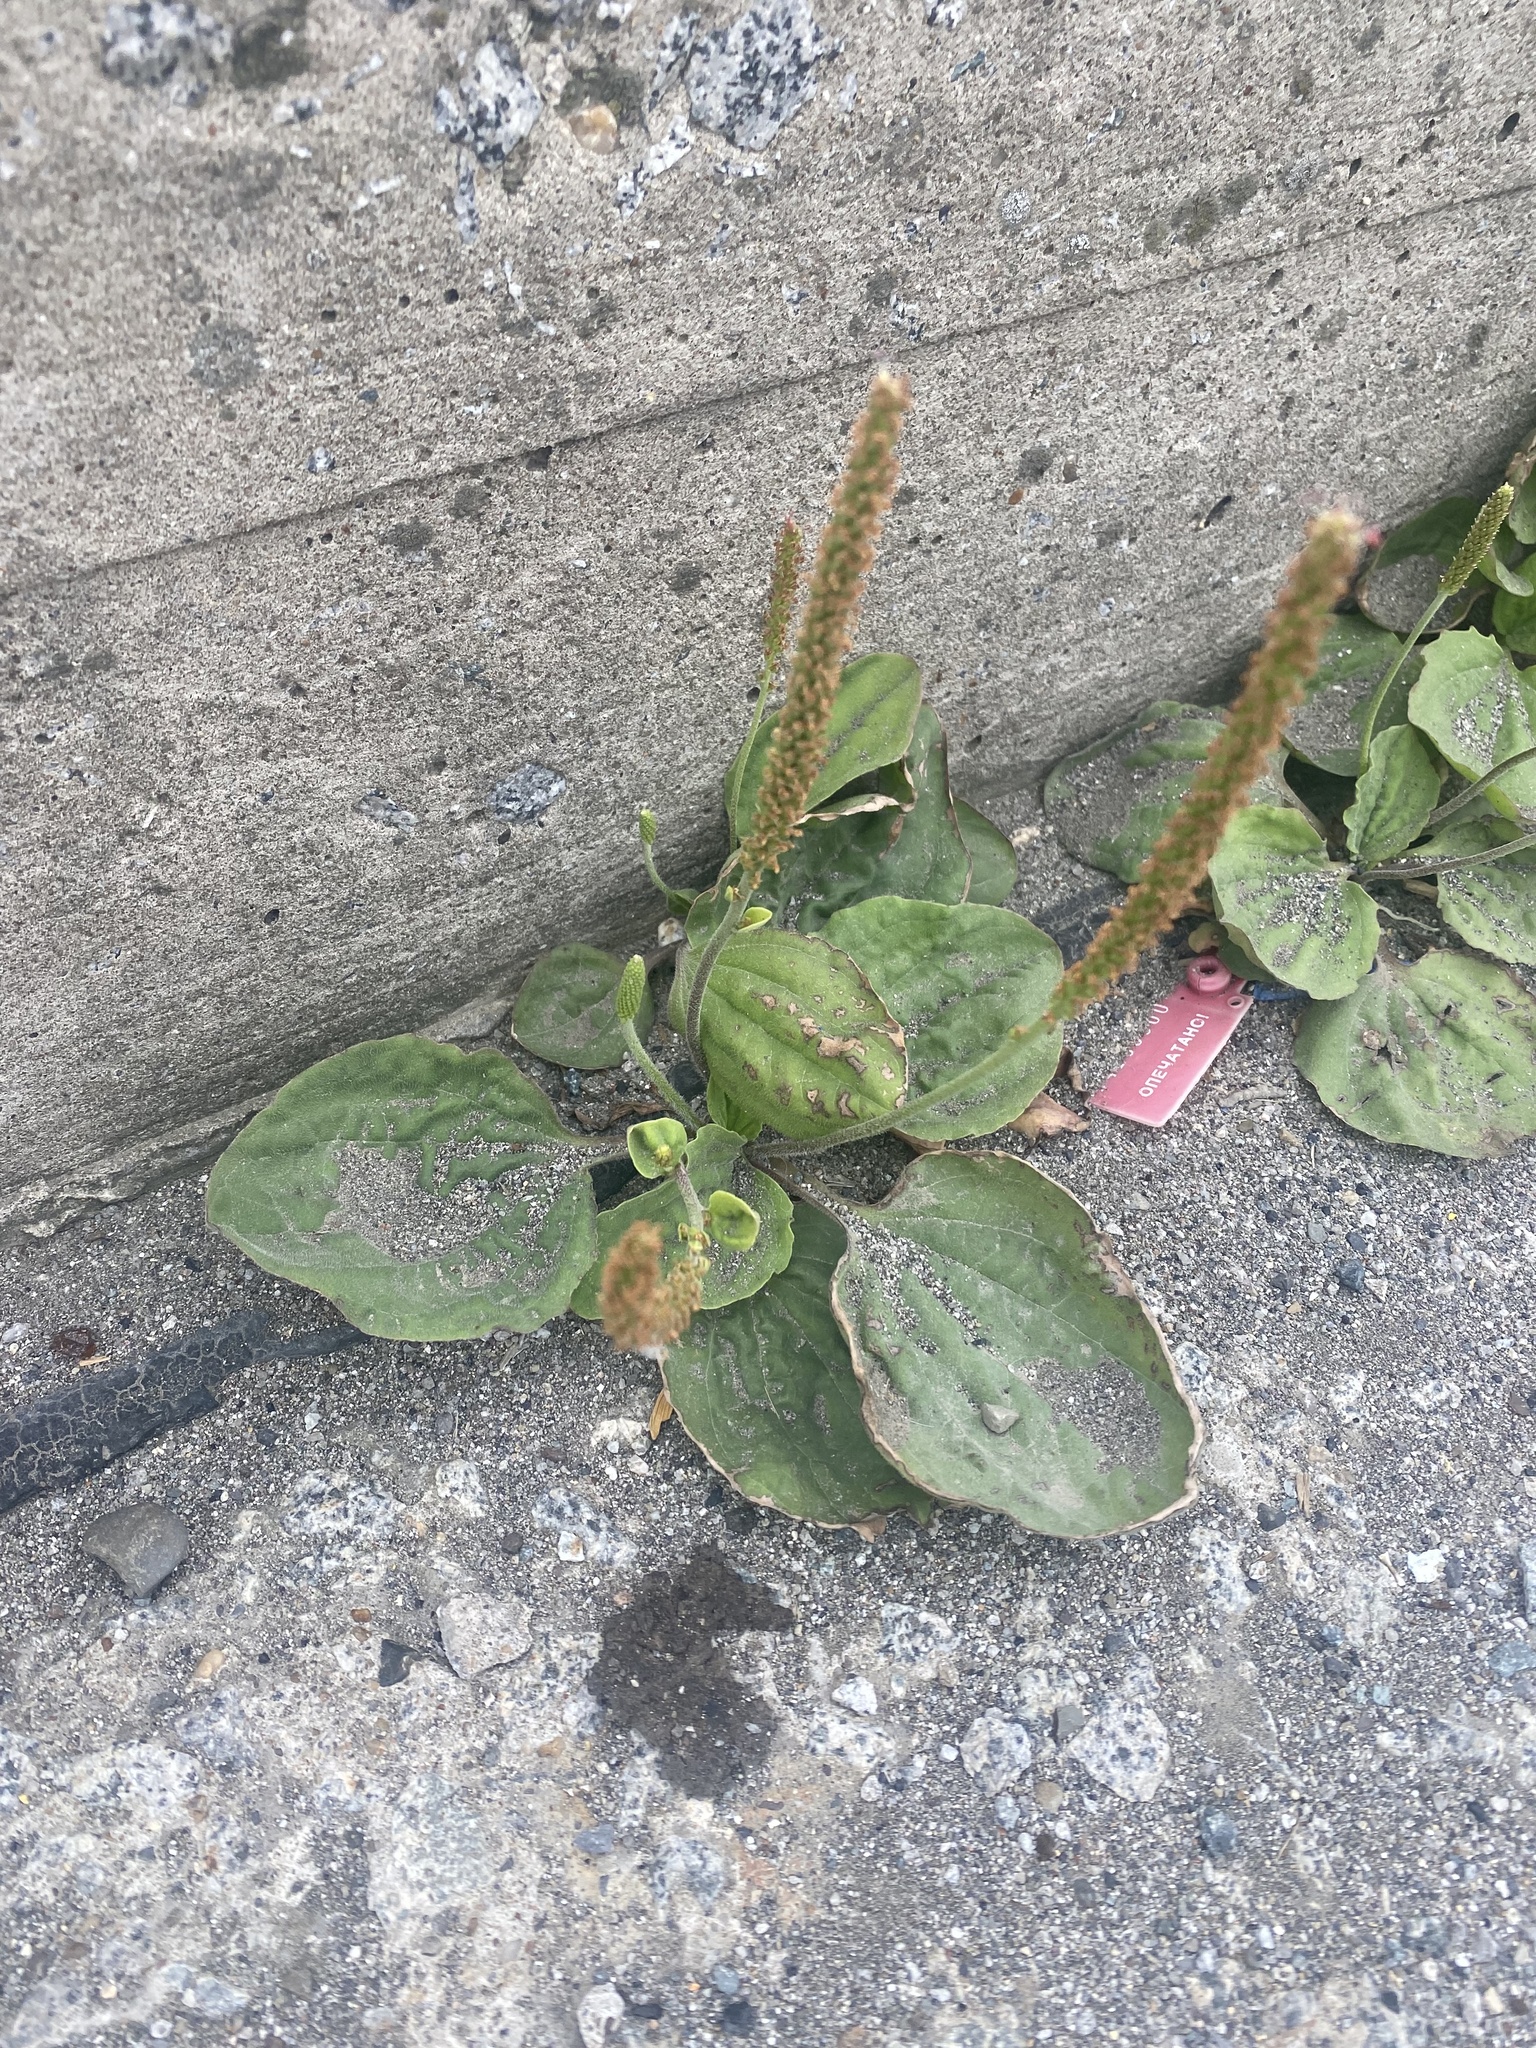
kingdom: Plantae
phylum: Tracheophyta
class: Magnoliopsida
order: Lamiales
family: Plantaginaceae
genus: Plantago
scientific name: Plantago major
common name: Common plantain
